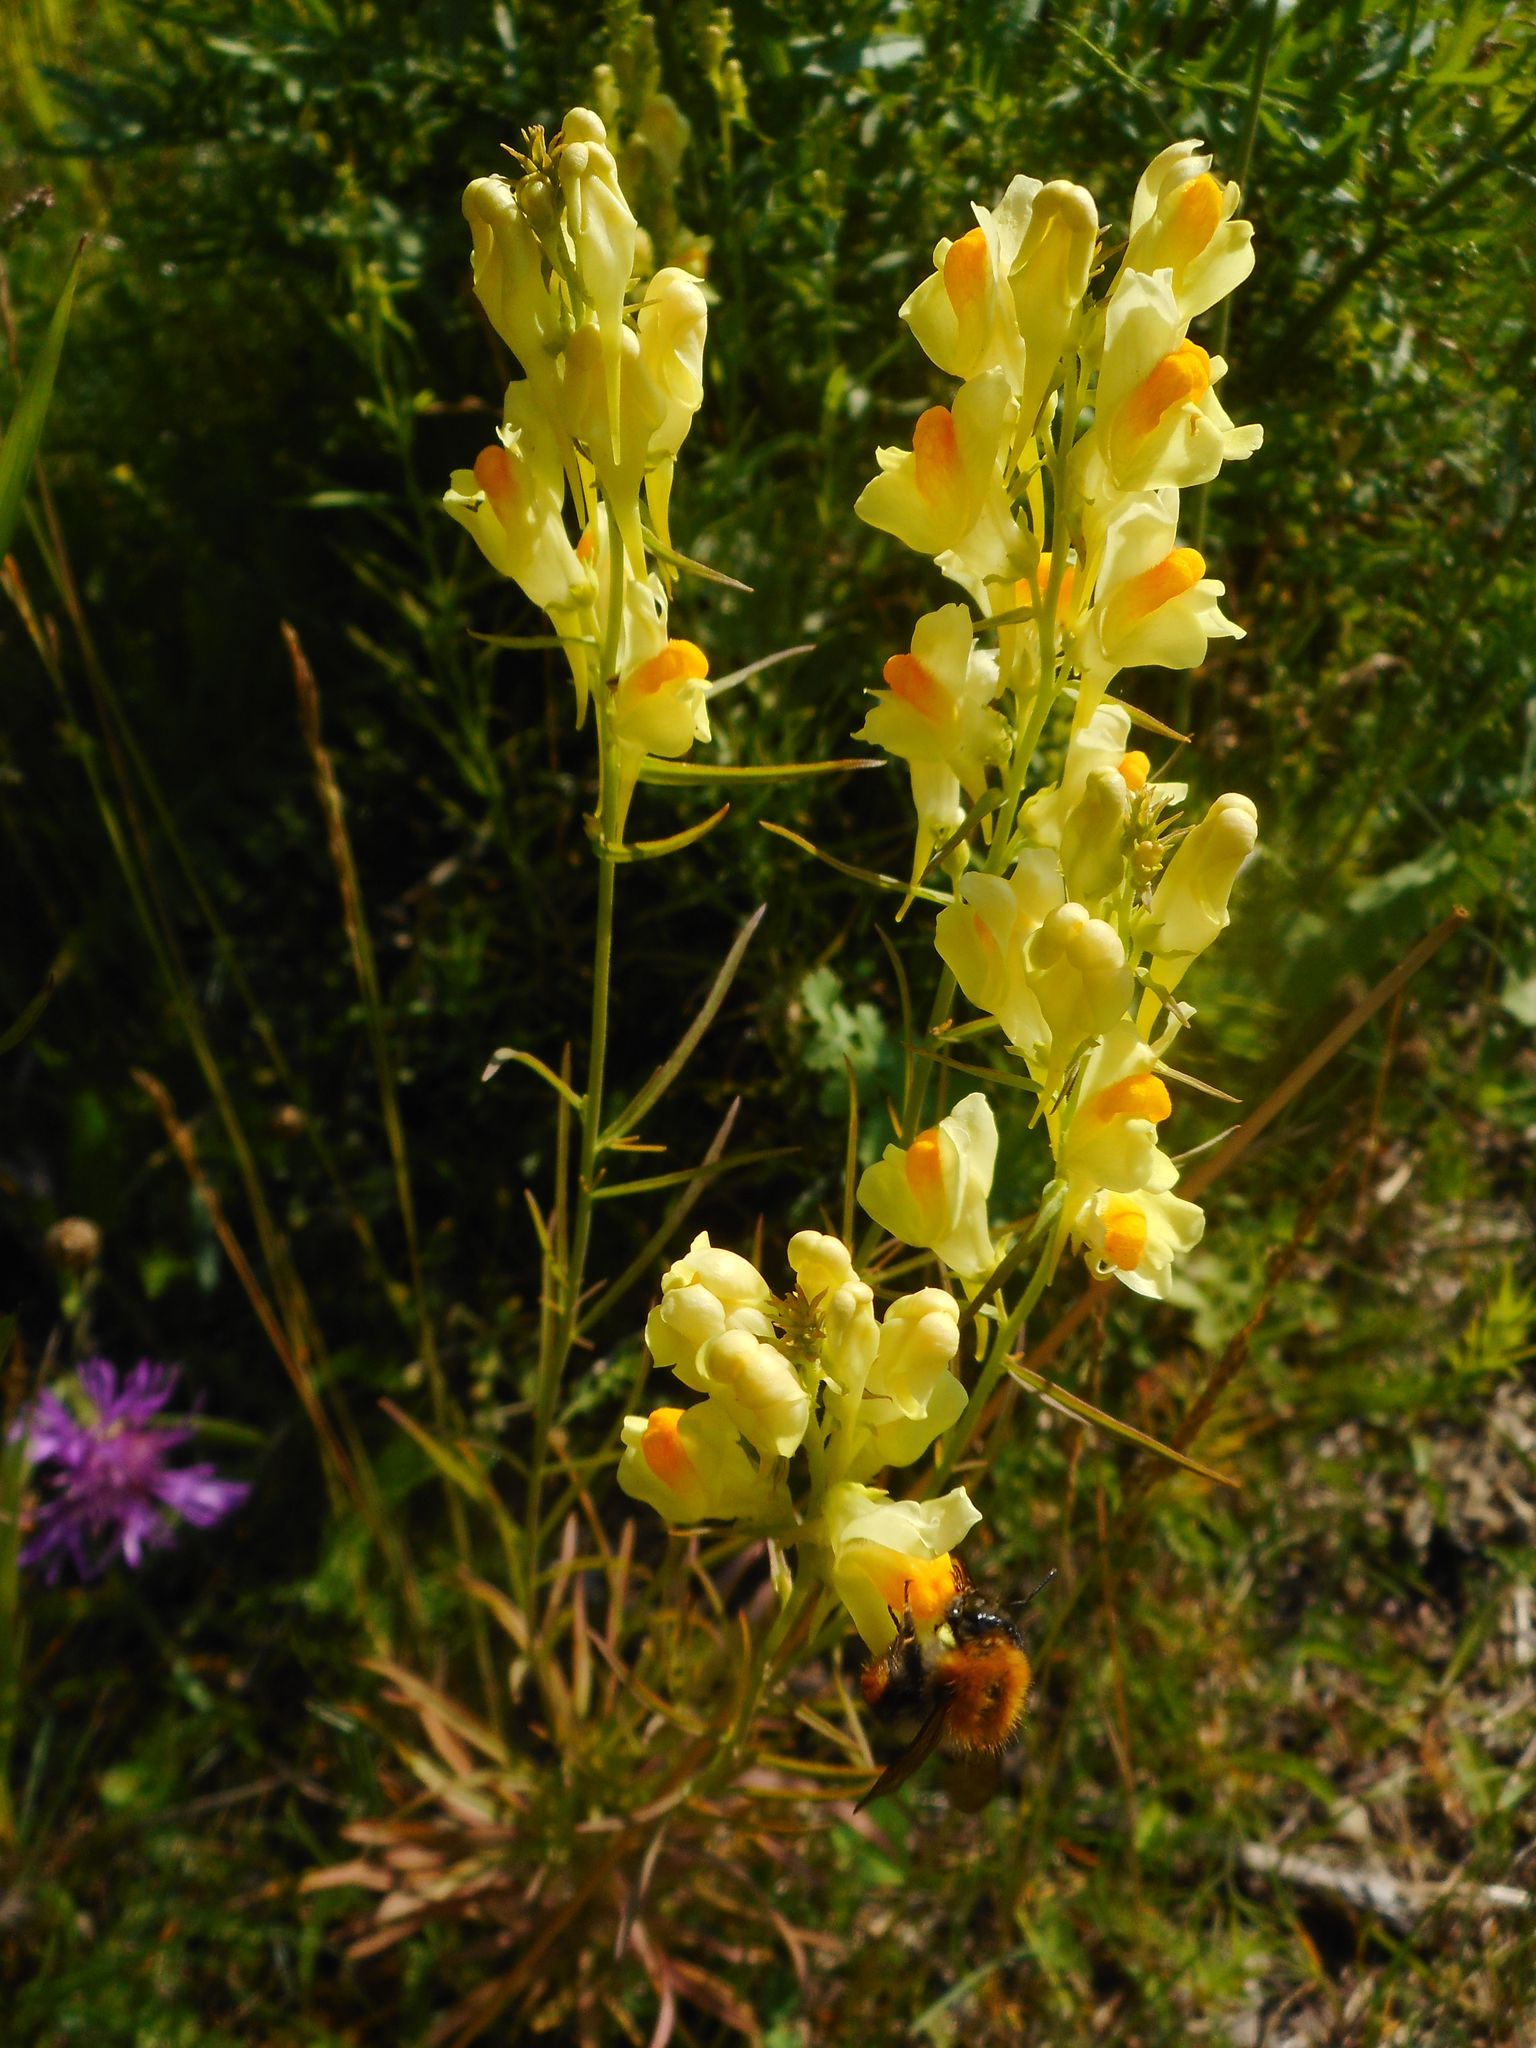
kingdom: Plantae
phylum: Tracheophyta
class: Magnoliopsida
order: Lamiales
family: Plantaginaceae
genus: Linaria
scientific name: Linaria vulgaris
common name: Butter and eggs
